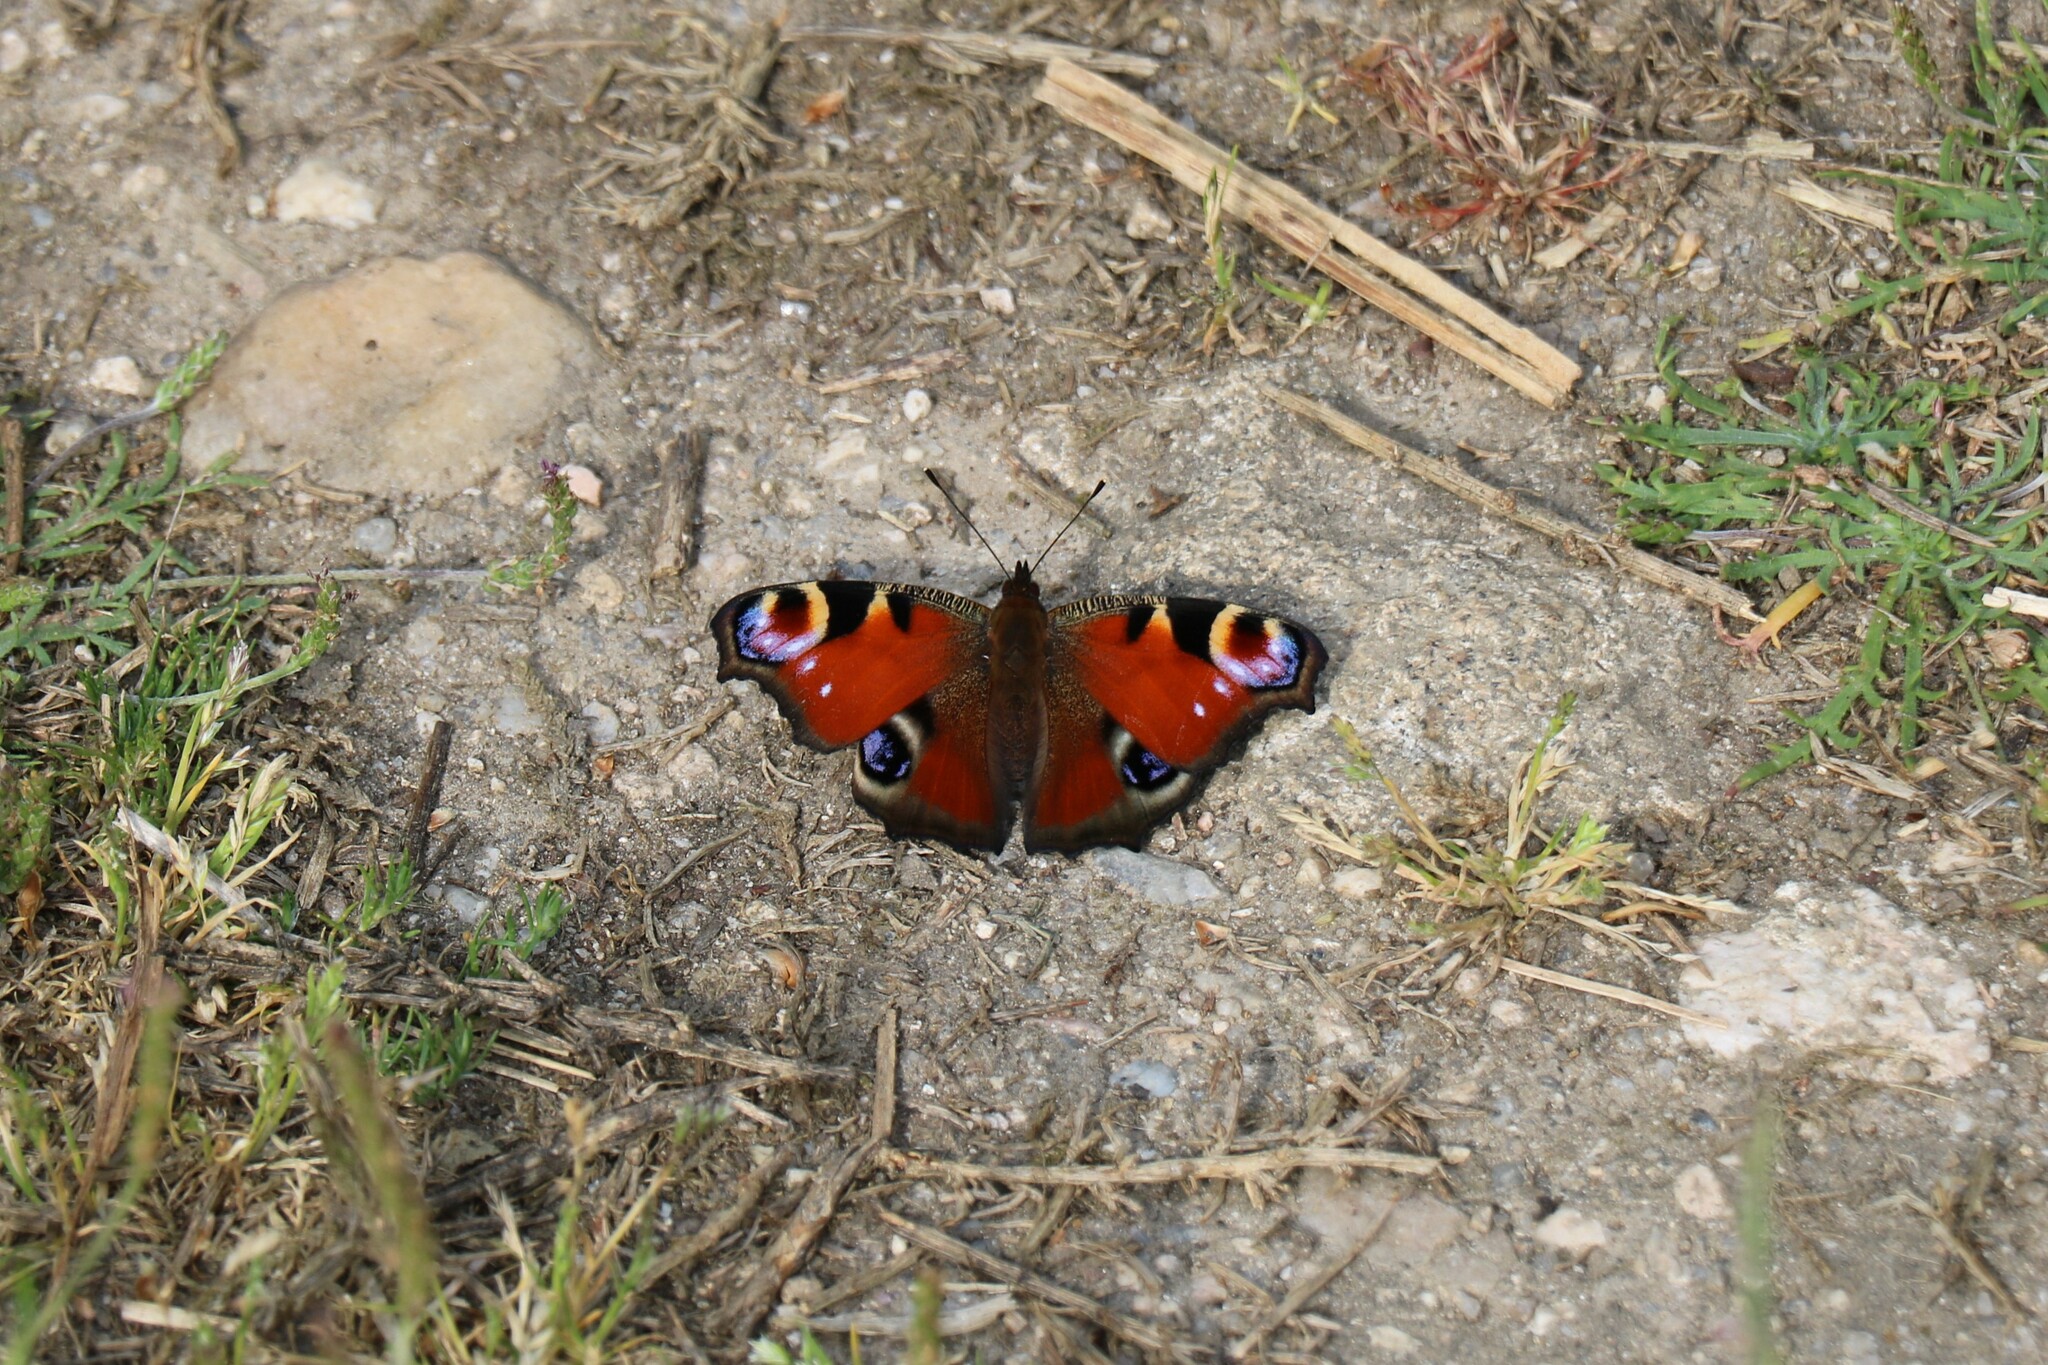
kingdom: Animalia
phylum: Arthropoda
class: Insecta
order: Lepidoptera
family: Nymphalidae
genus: Aglais
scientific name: Aglais io
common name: Peacock
